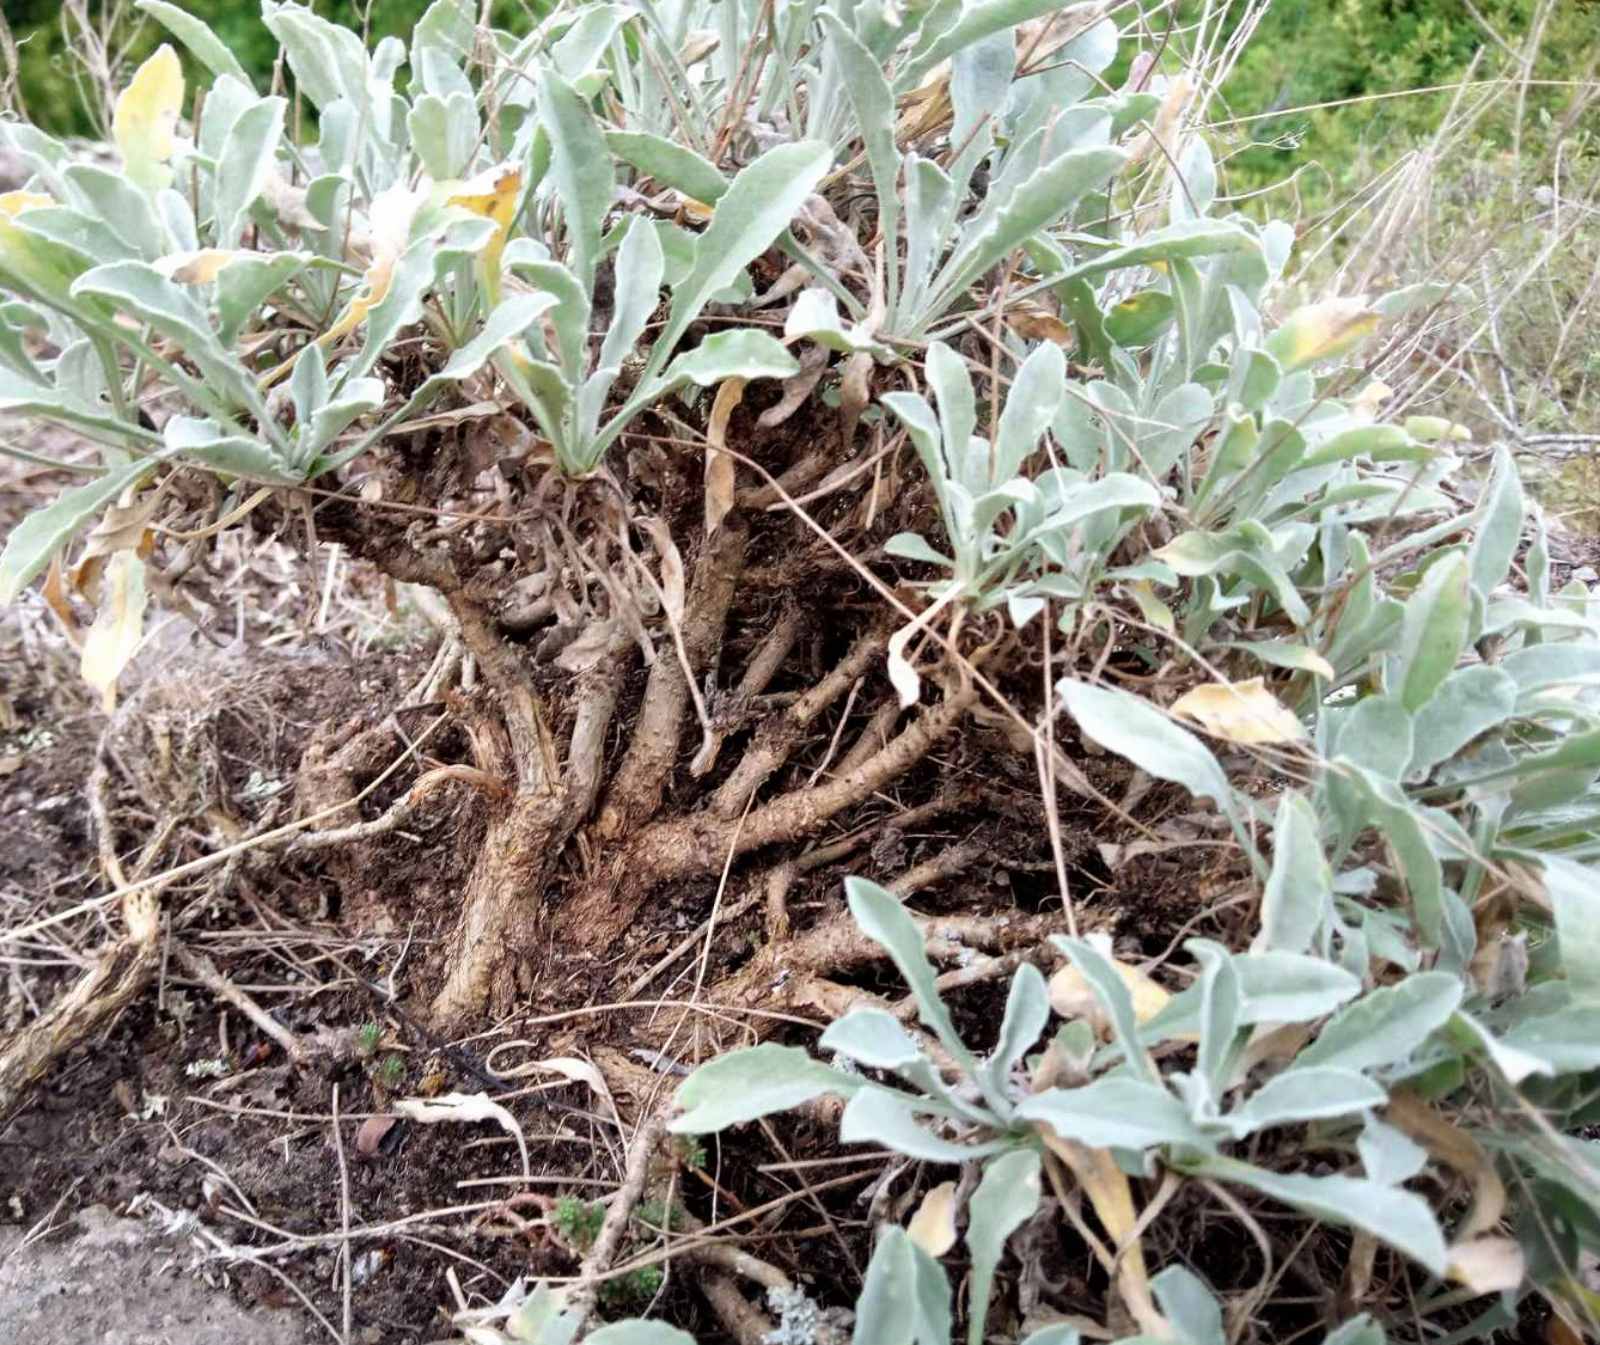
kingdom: Plantae
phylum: Tracheophyta
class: Magnoliopsida
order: Brassicales
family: Brassicaceae
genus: Aurinia
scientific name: Aurinia saxatilis
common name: Golden-tuft alyssum
